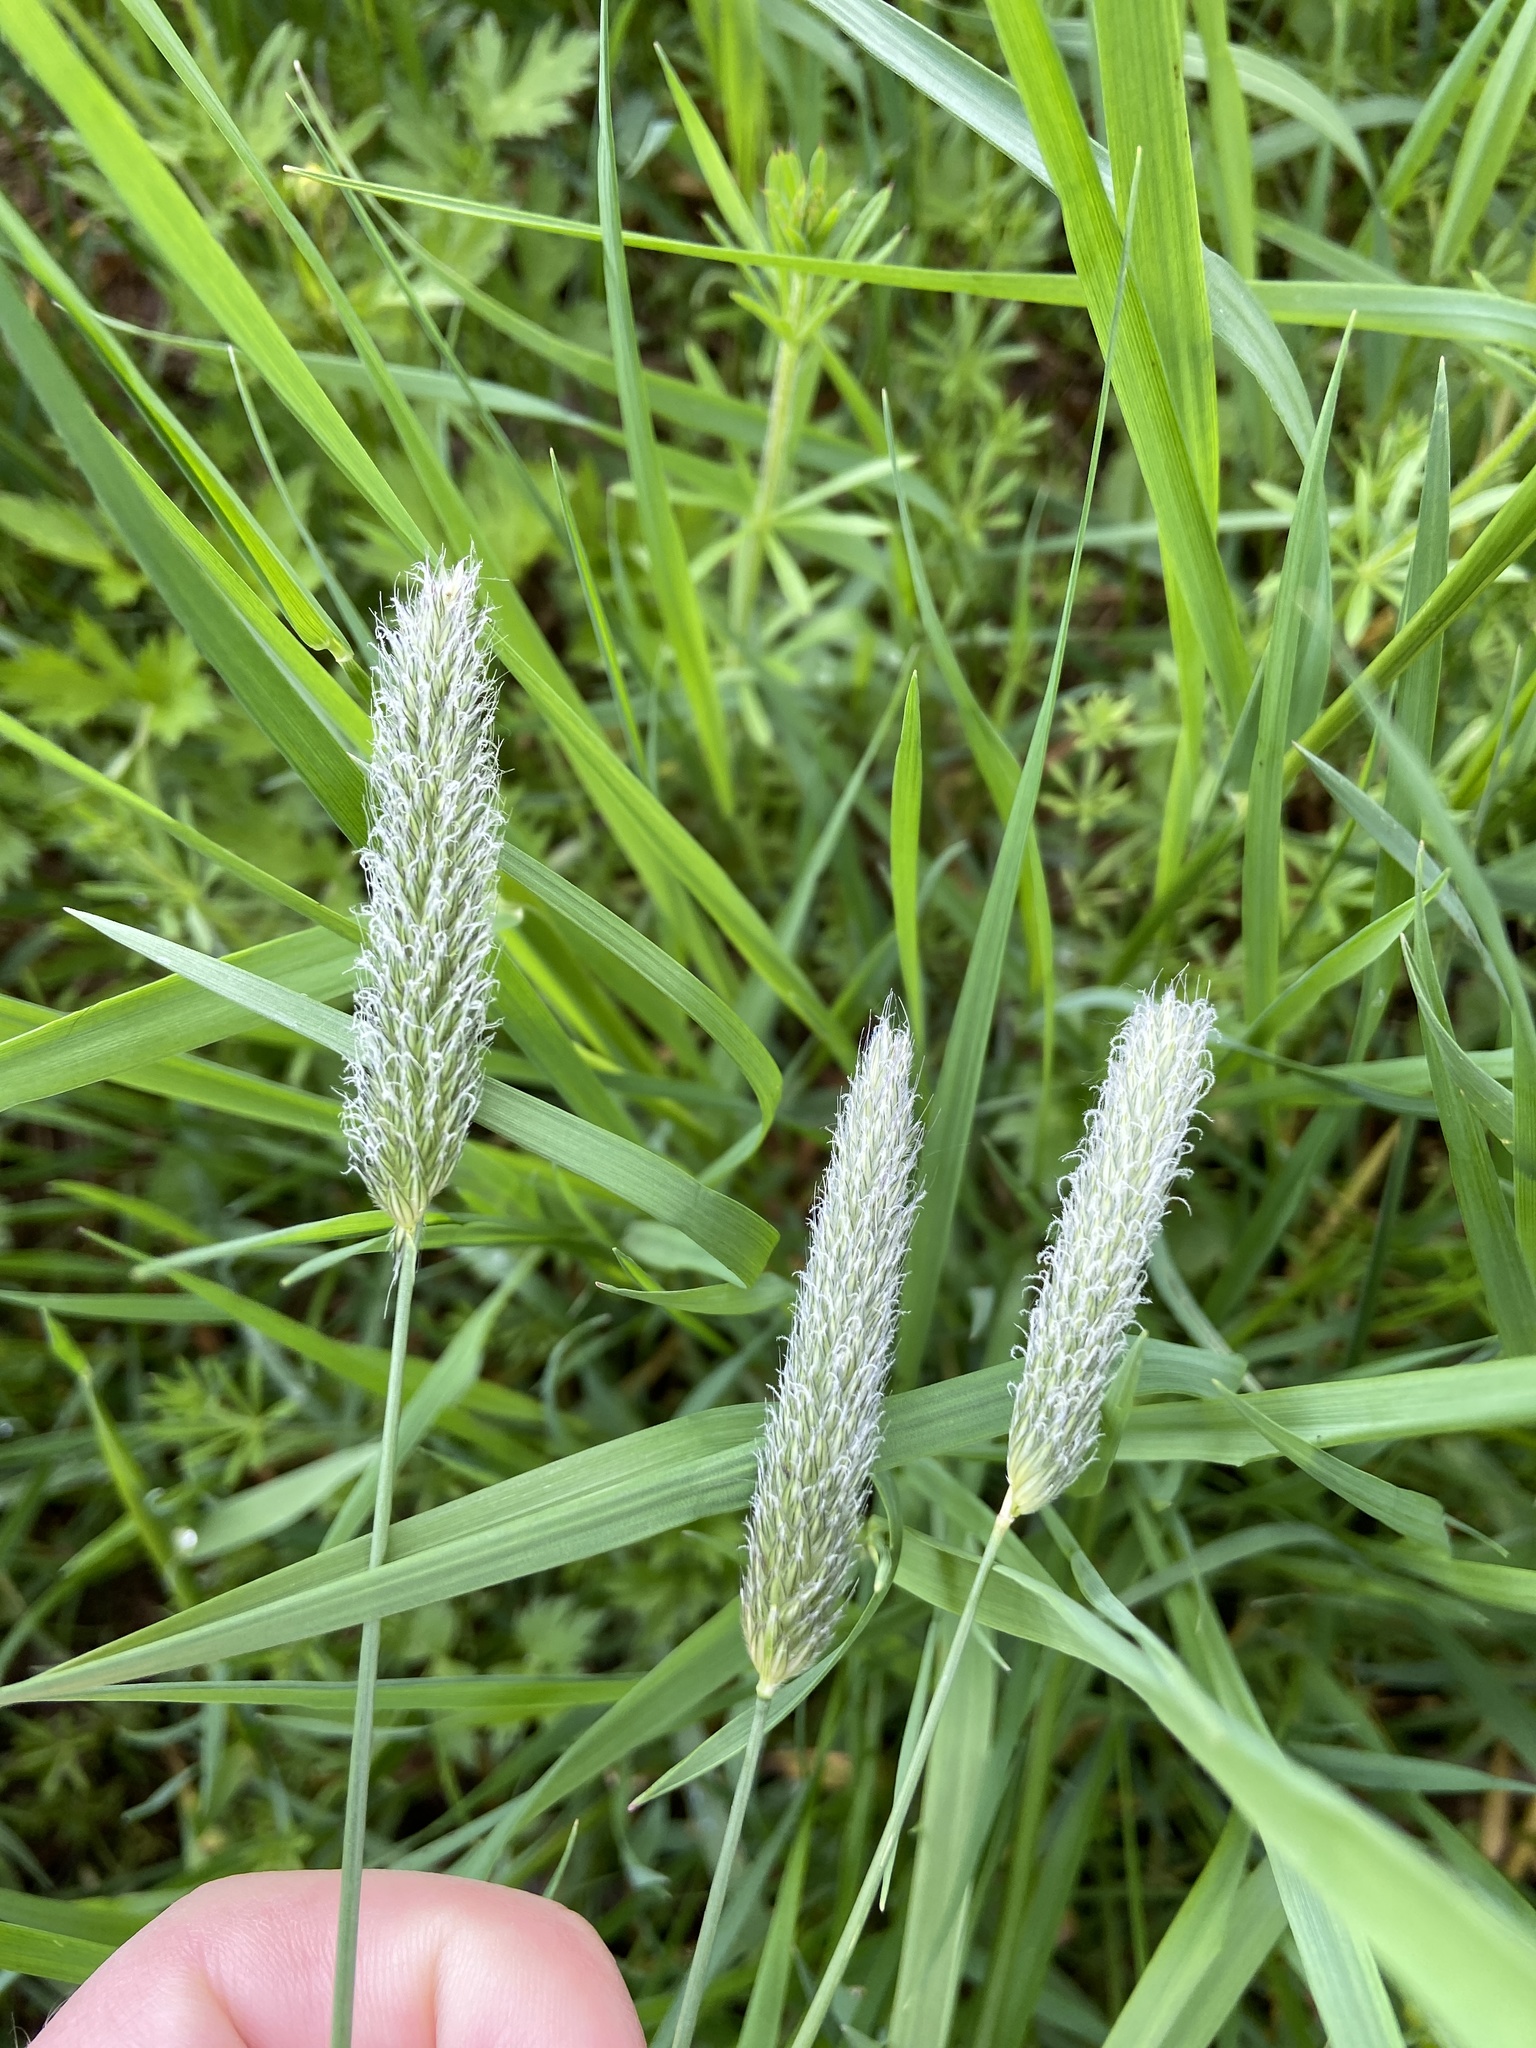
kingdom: Plantae
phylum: Tracheophyta
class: Liliopsida
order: Poales
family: Poaceae
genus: Alopecurus
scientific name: Alopecurus pratensis
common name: Meadow foxtail
